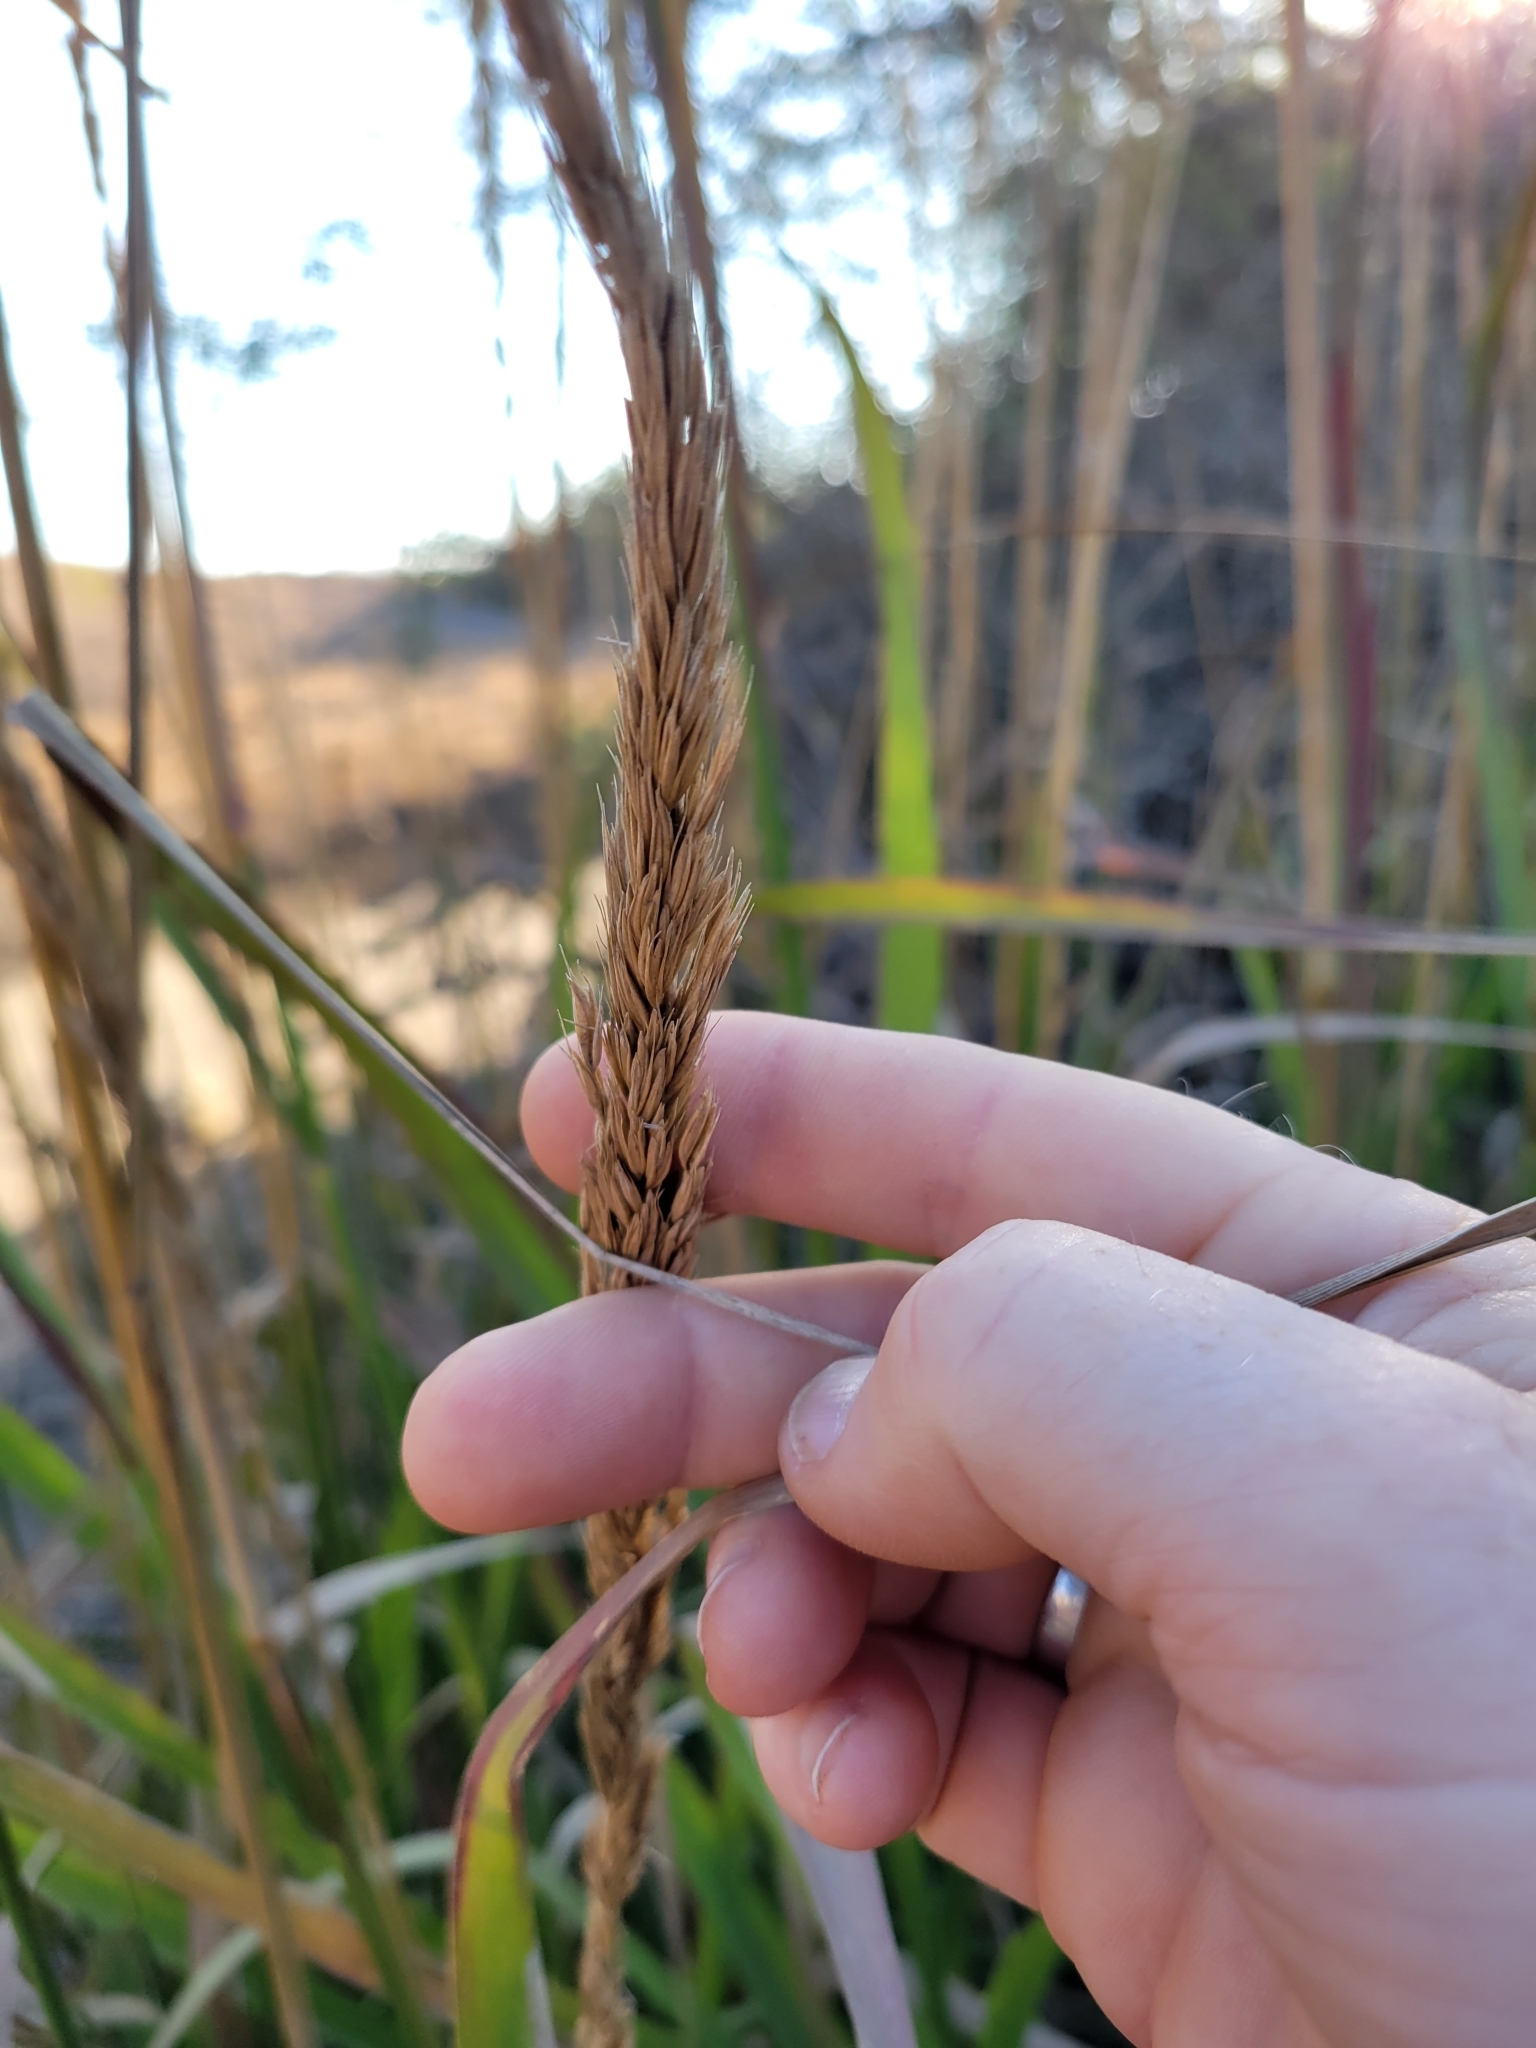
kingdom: Plantae
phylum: Tracheophyta
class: Liliopsida
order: Poales
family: Poaceae
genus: Leymus
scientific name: Leymus condensatus
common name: Giant wild rye
